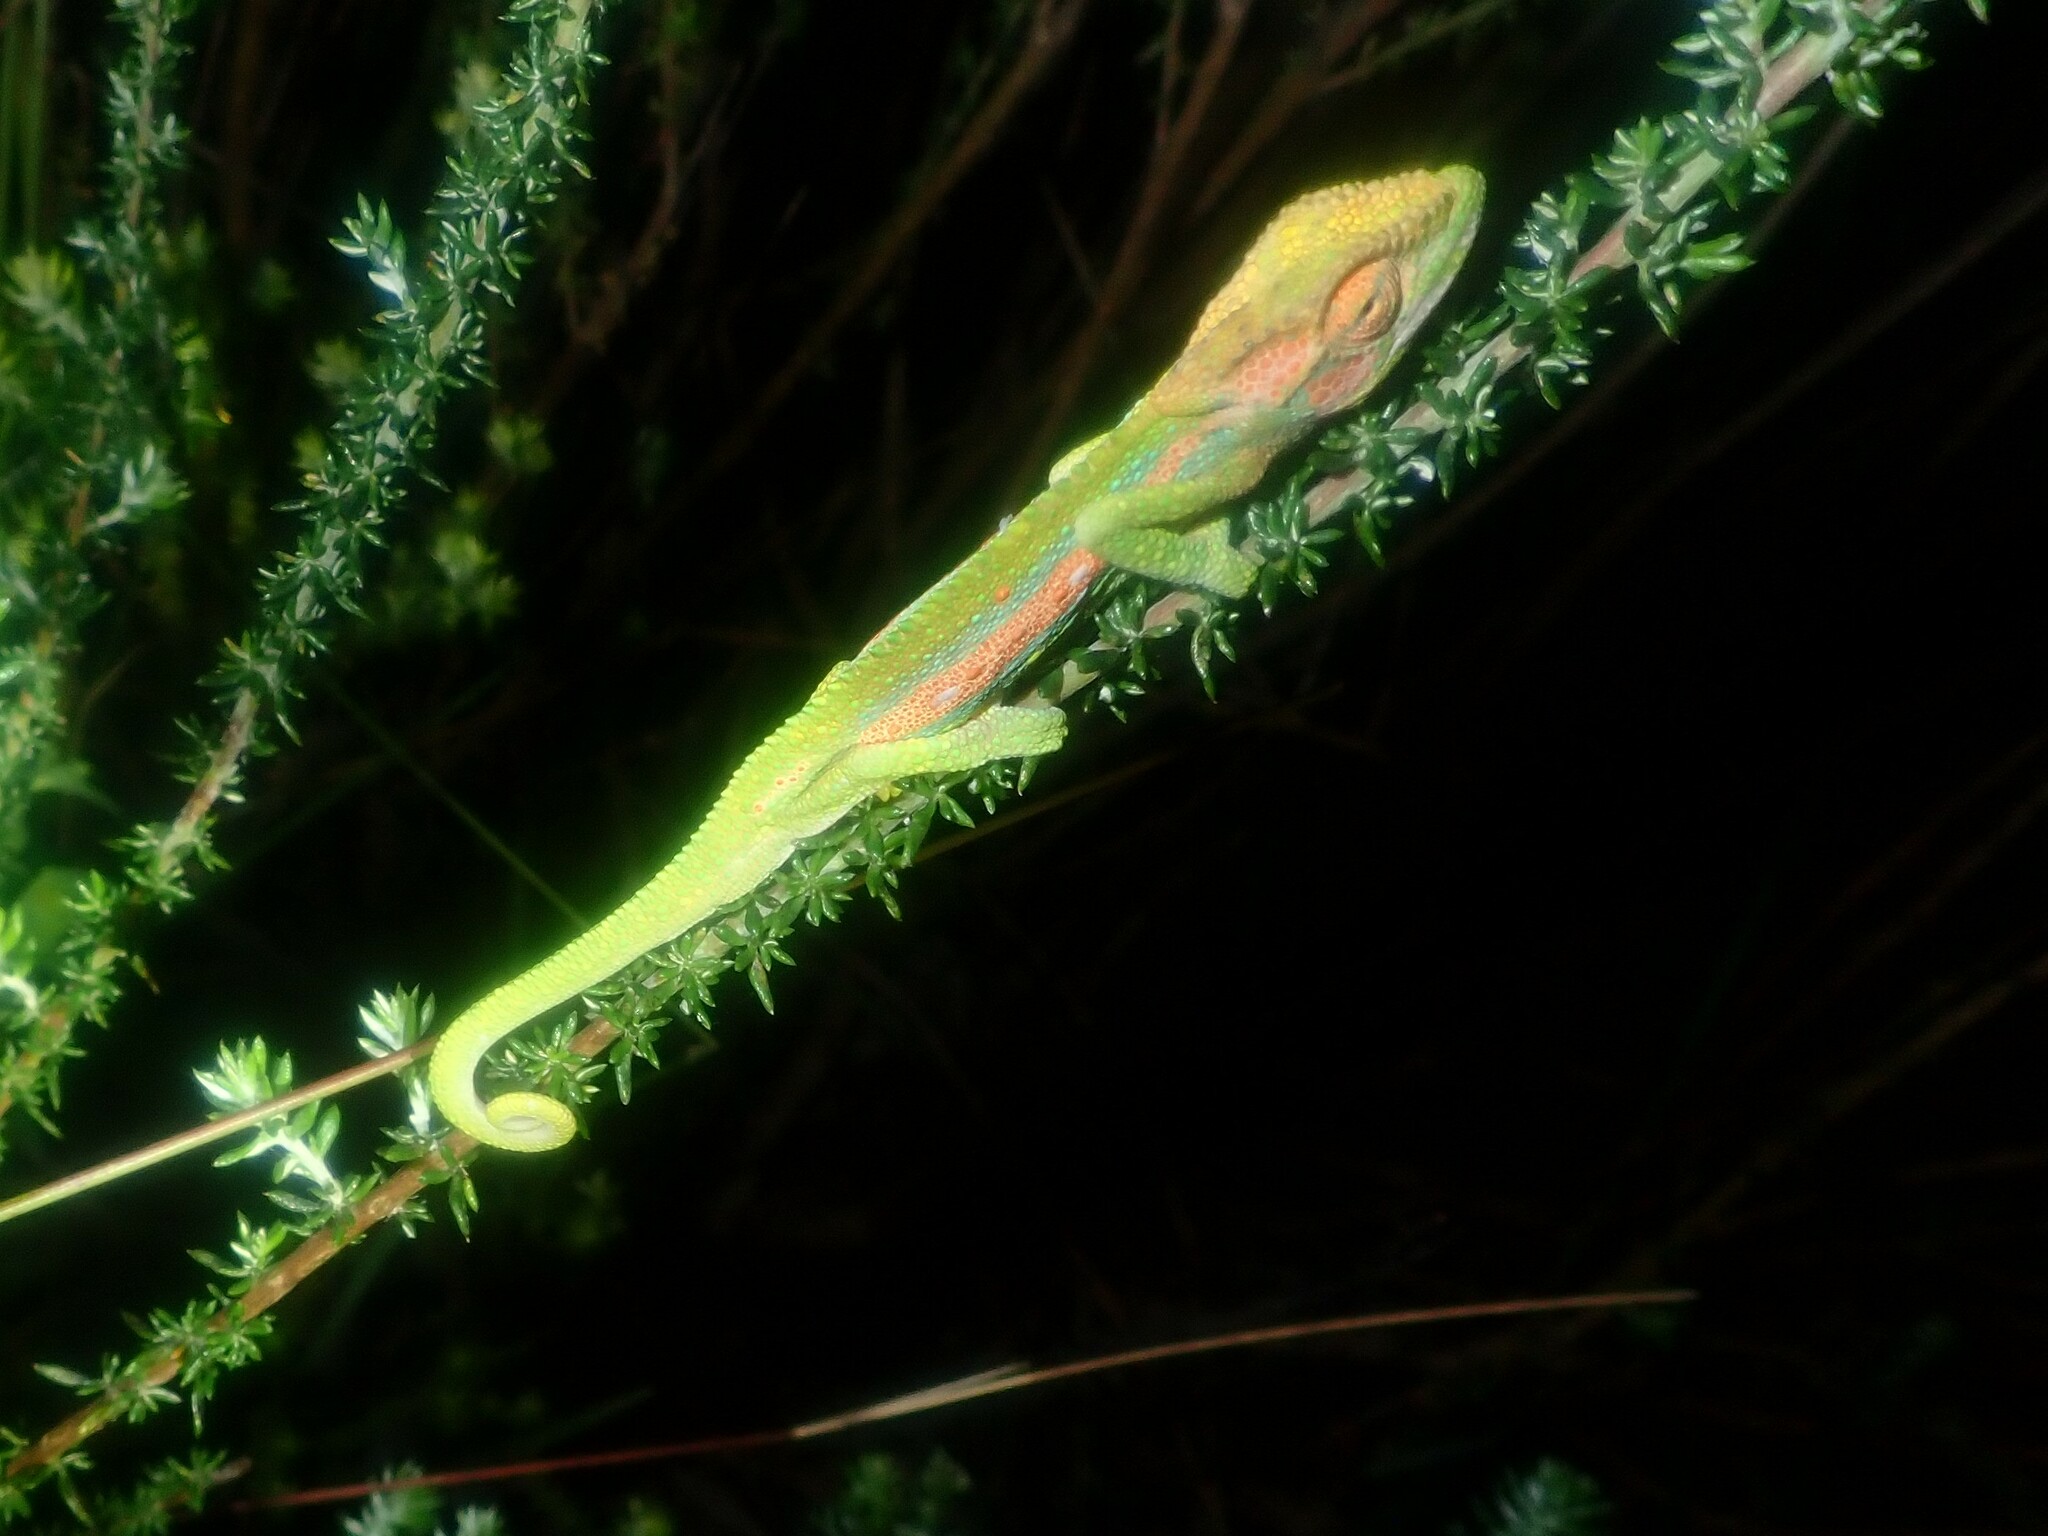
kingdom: Animalia
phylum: Chordata
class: Squamata
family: Chamaeleonidae
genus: Bradypodion
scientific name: Bradypodion pumilum
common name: Cape dwarf chameleon
